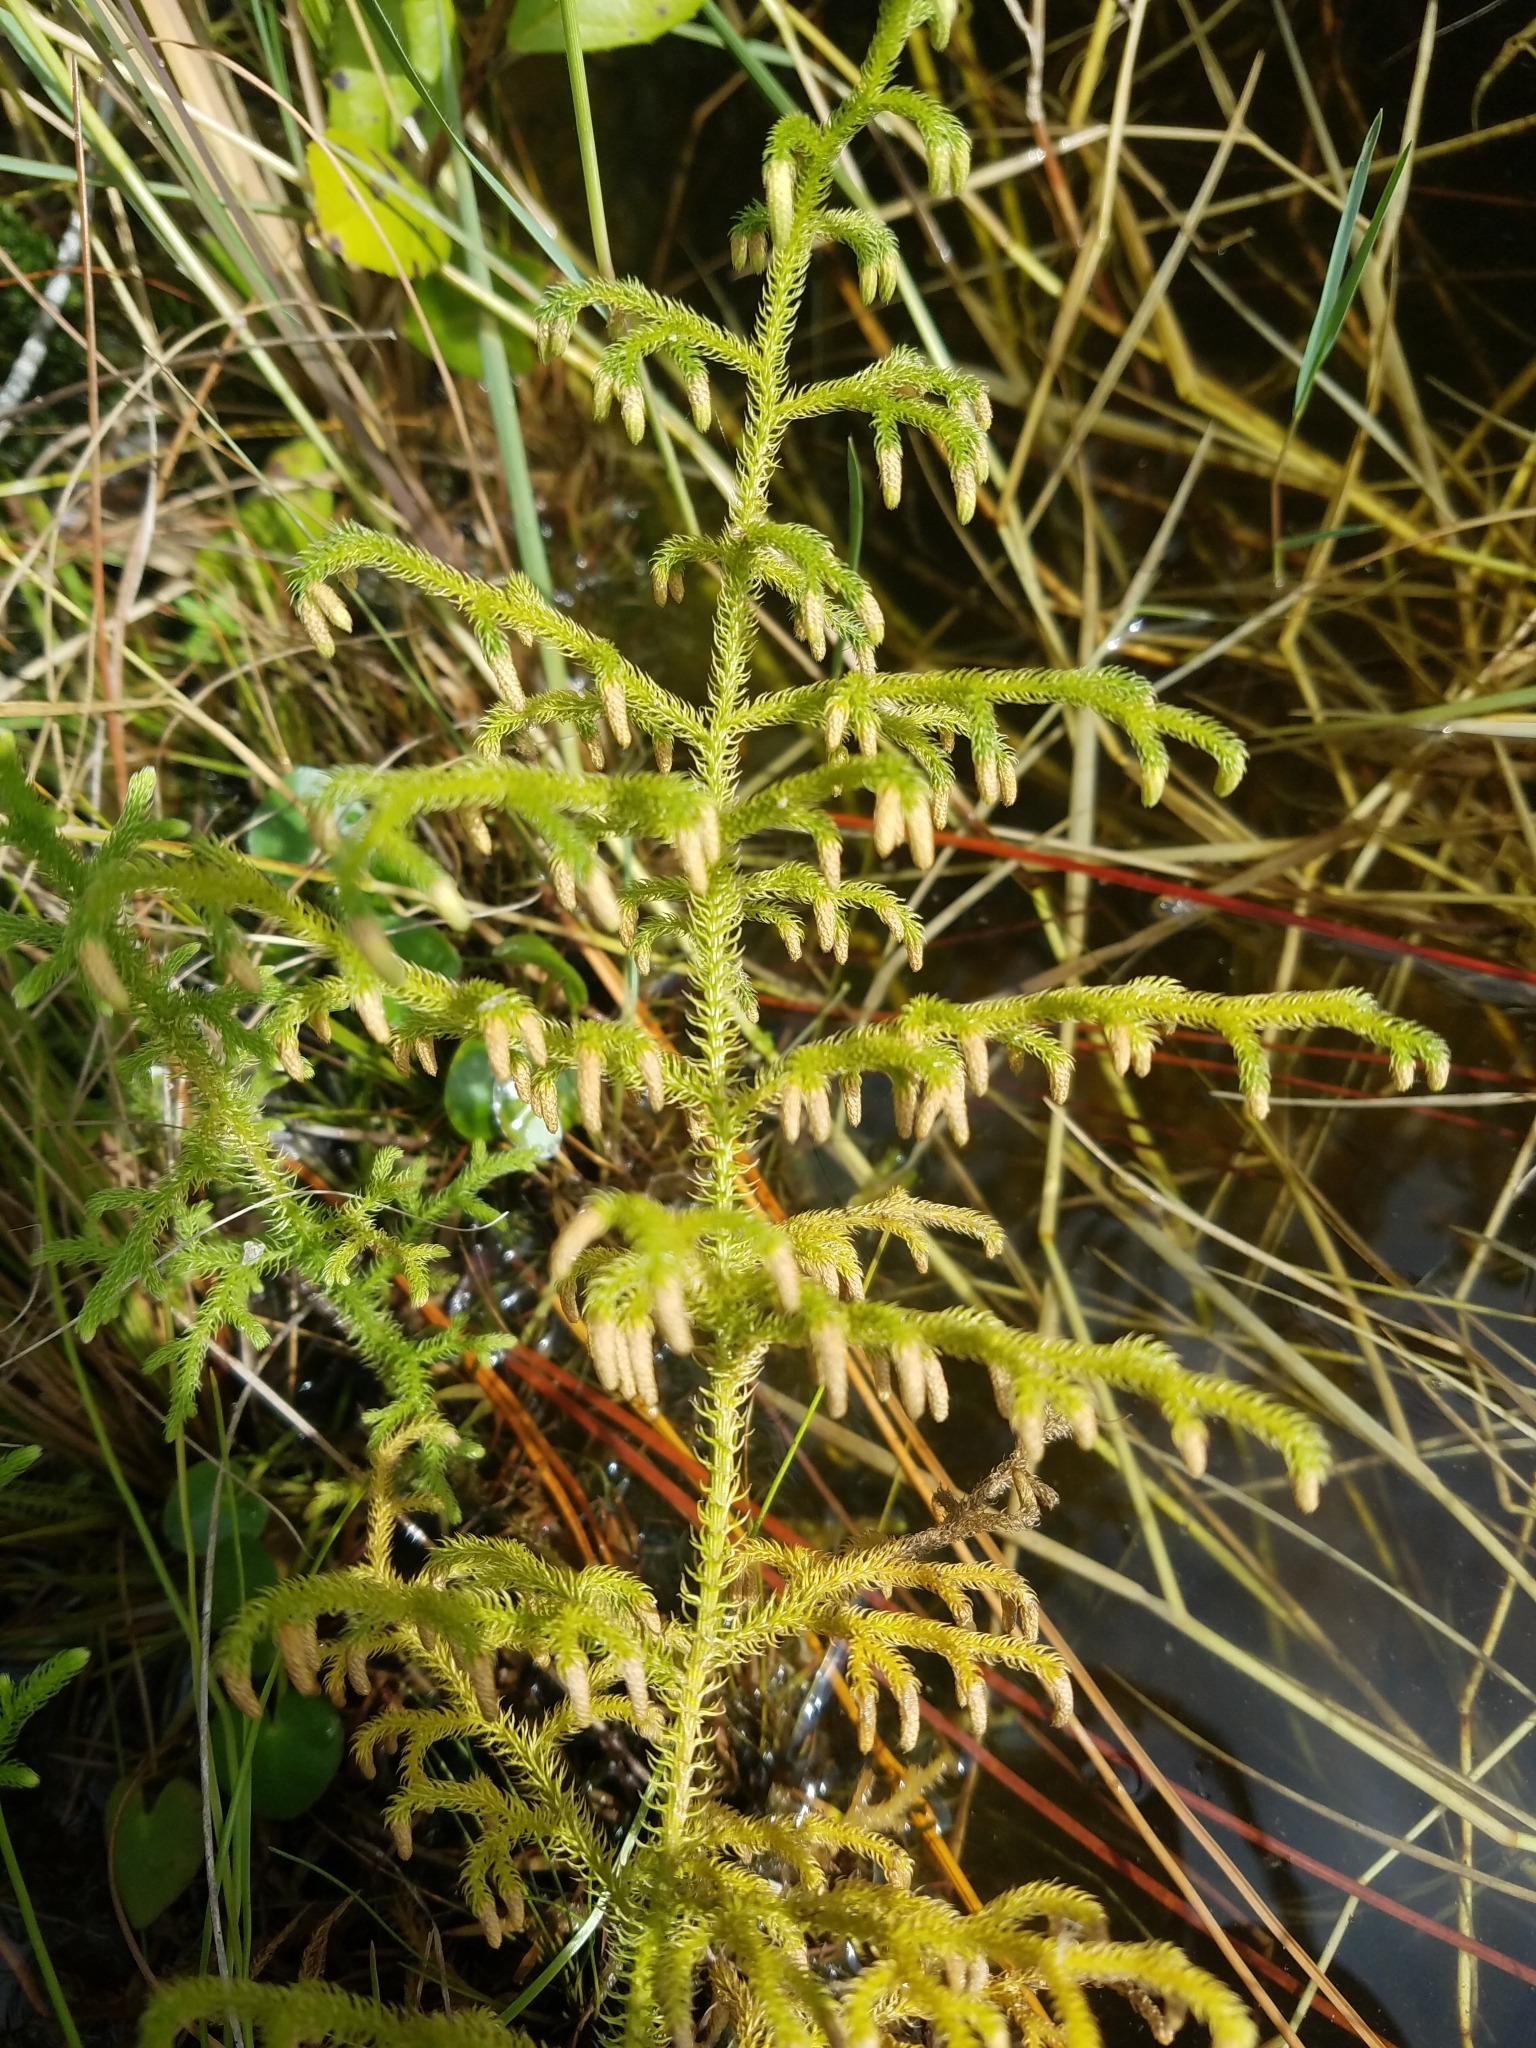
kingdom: Plantae
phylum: Tracheophyta
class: Lycopodiopsida
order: Lycopodiales
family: Lycopodiaceae
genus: Palhinhaea
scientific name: Palhinhaea cernua
